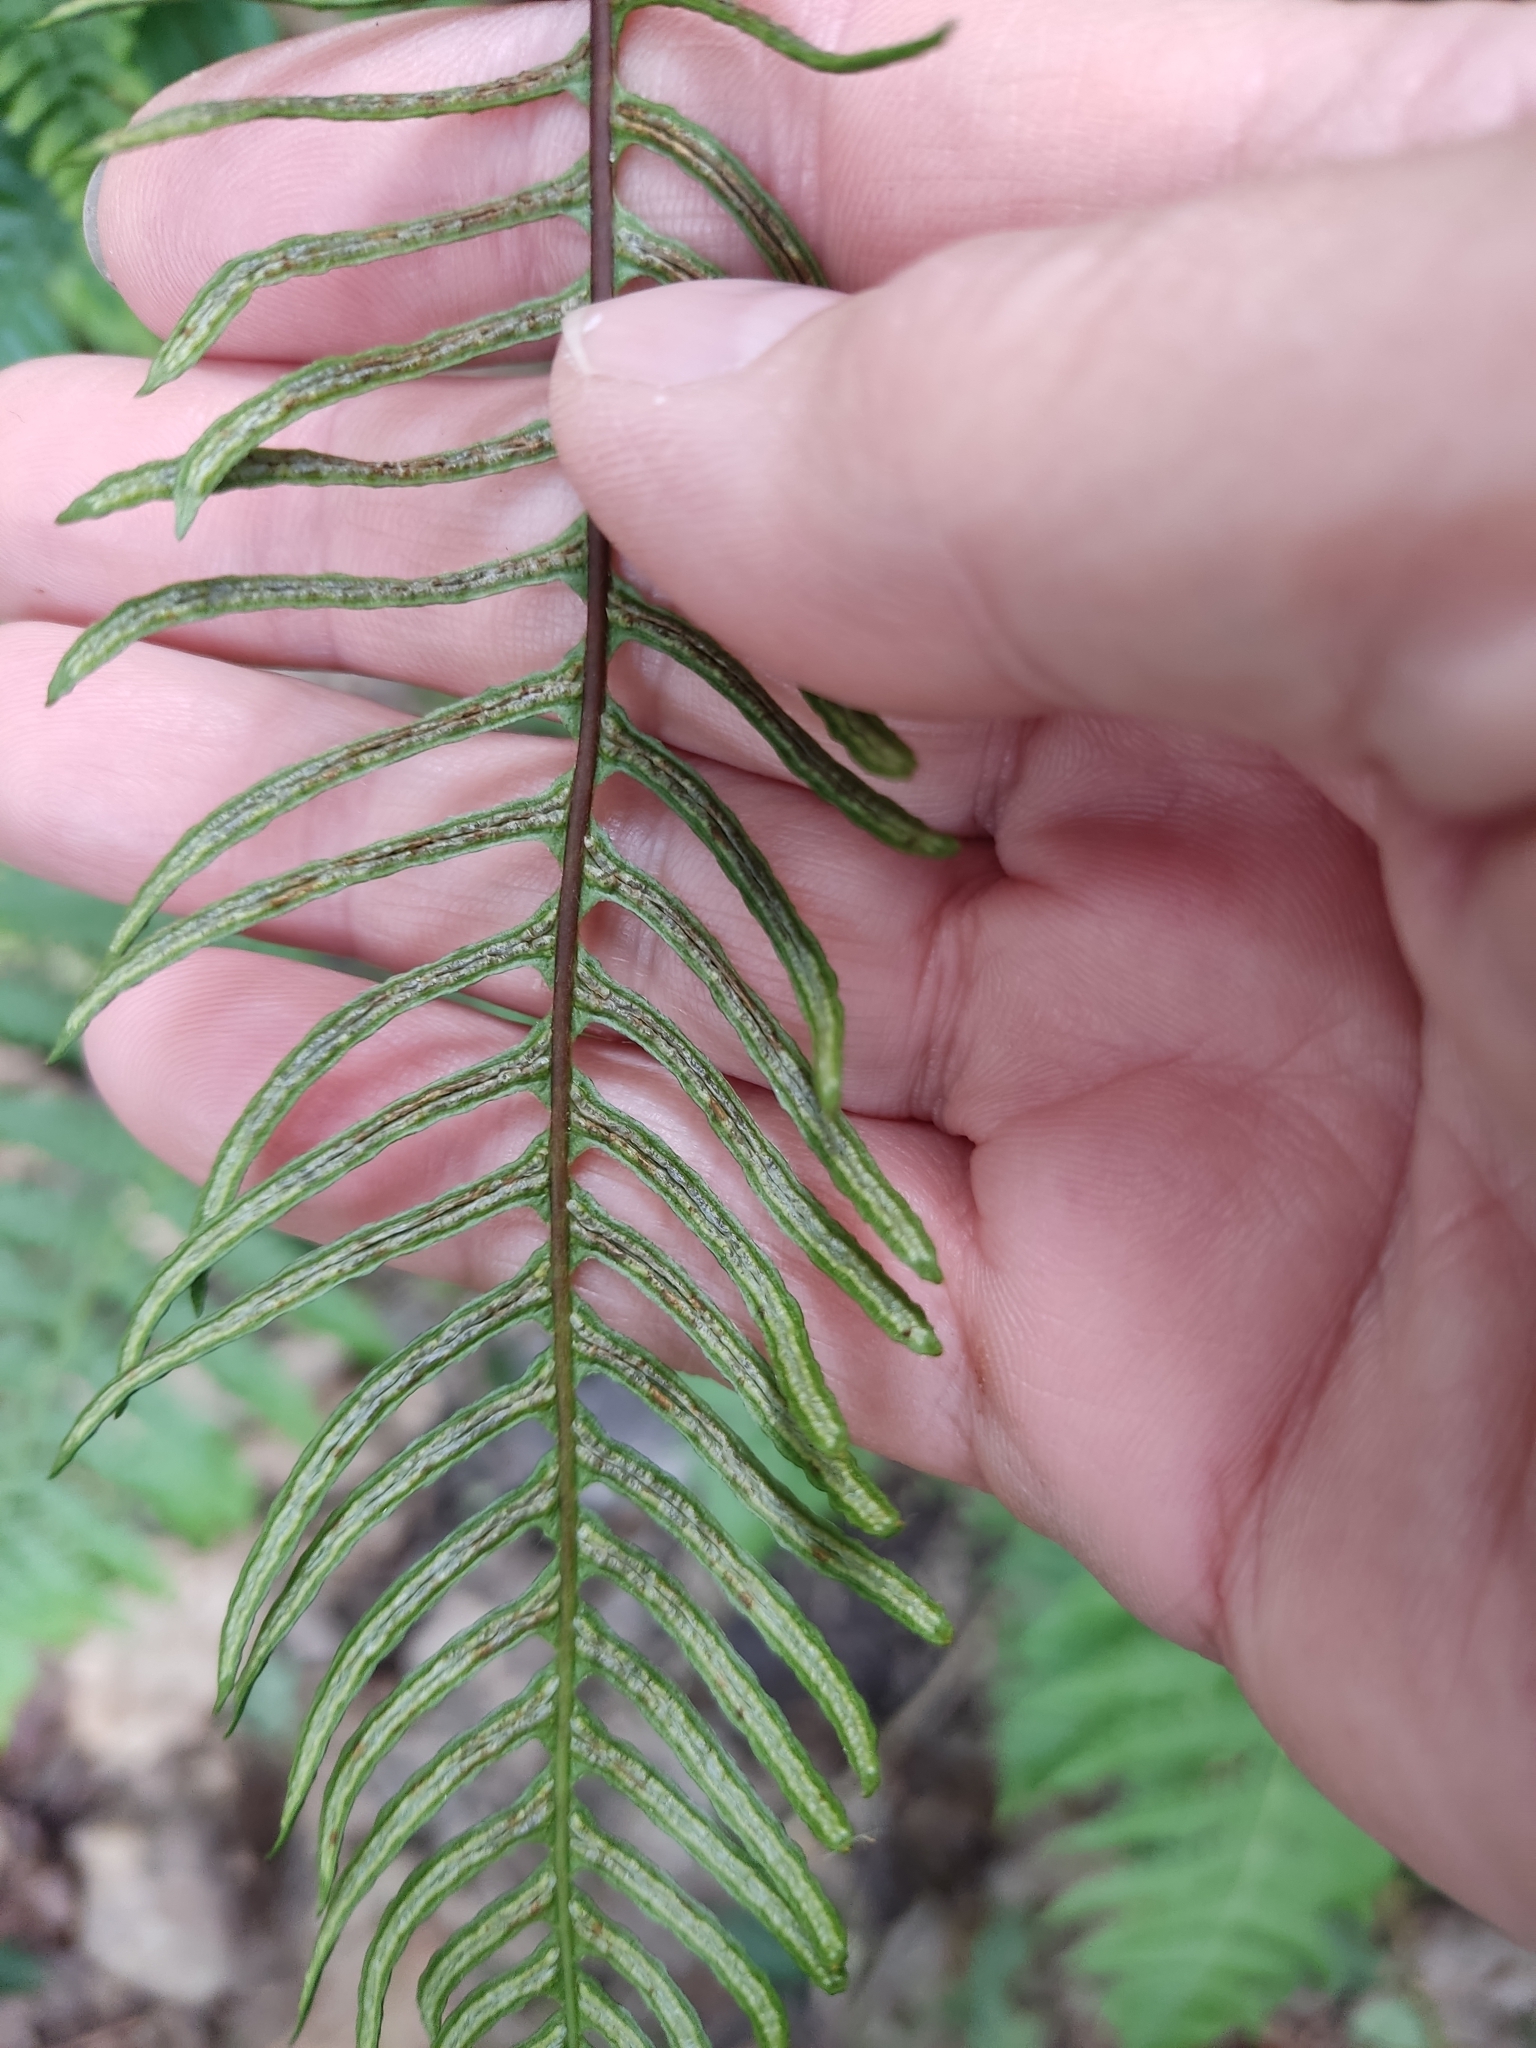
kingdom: Plantae
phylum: Tracheophyta
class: Polypodiopsida
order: Polypodiales
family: Blechnaceae
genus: Struthiopteris
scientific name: Struthiopteris spicant
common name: Deer fern
